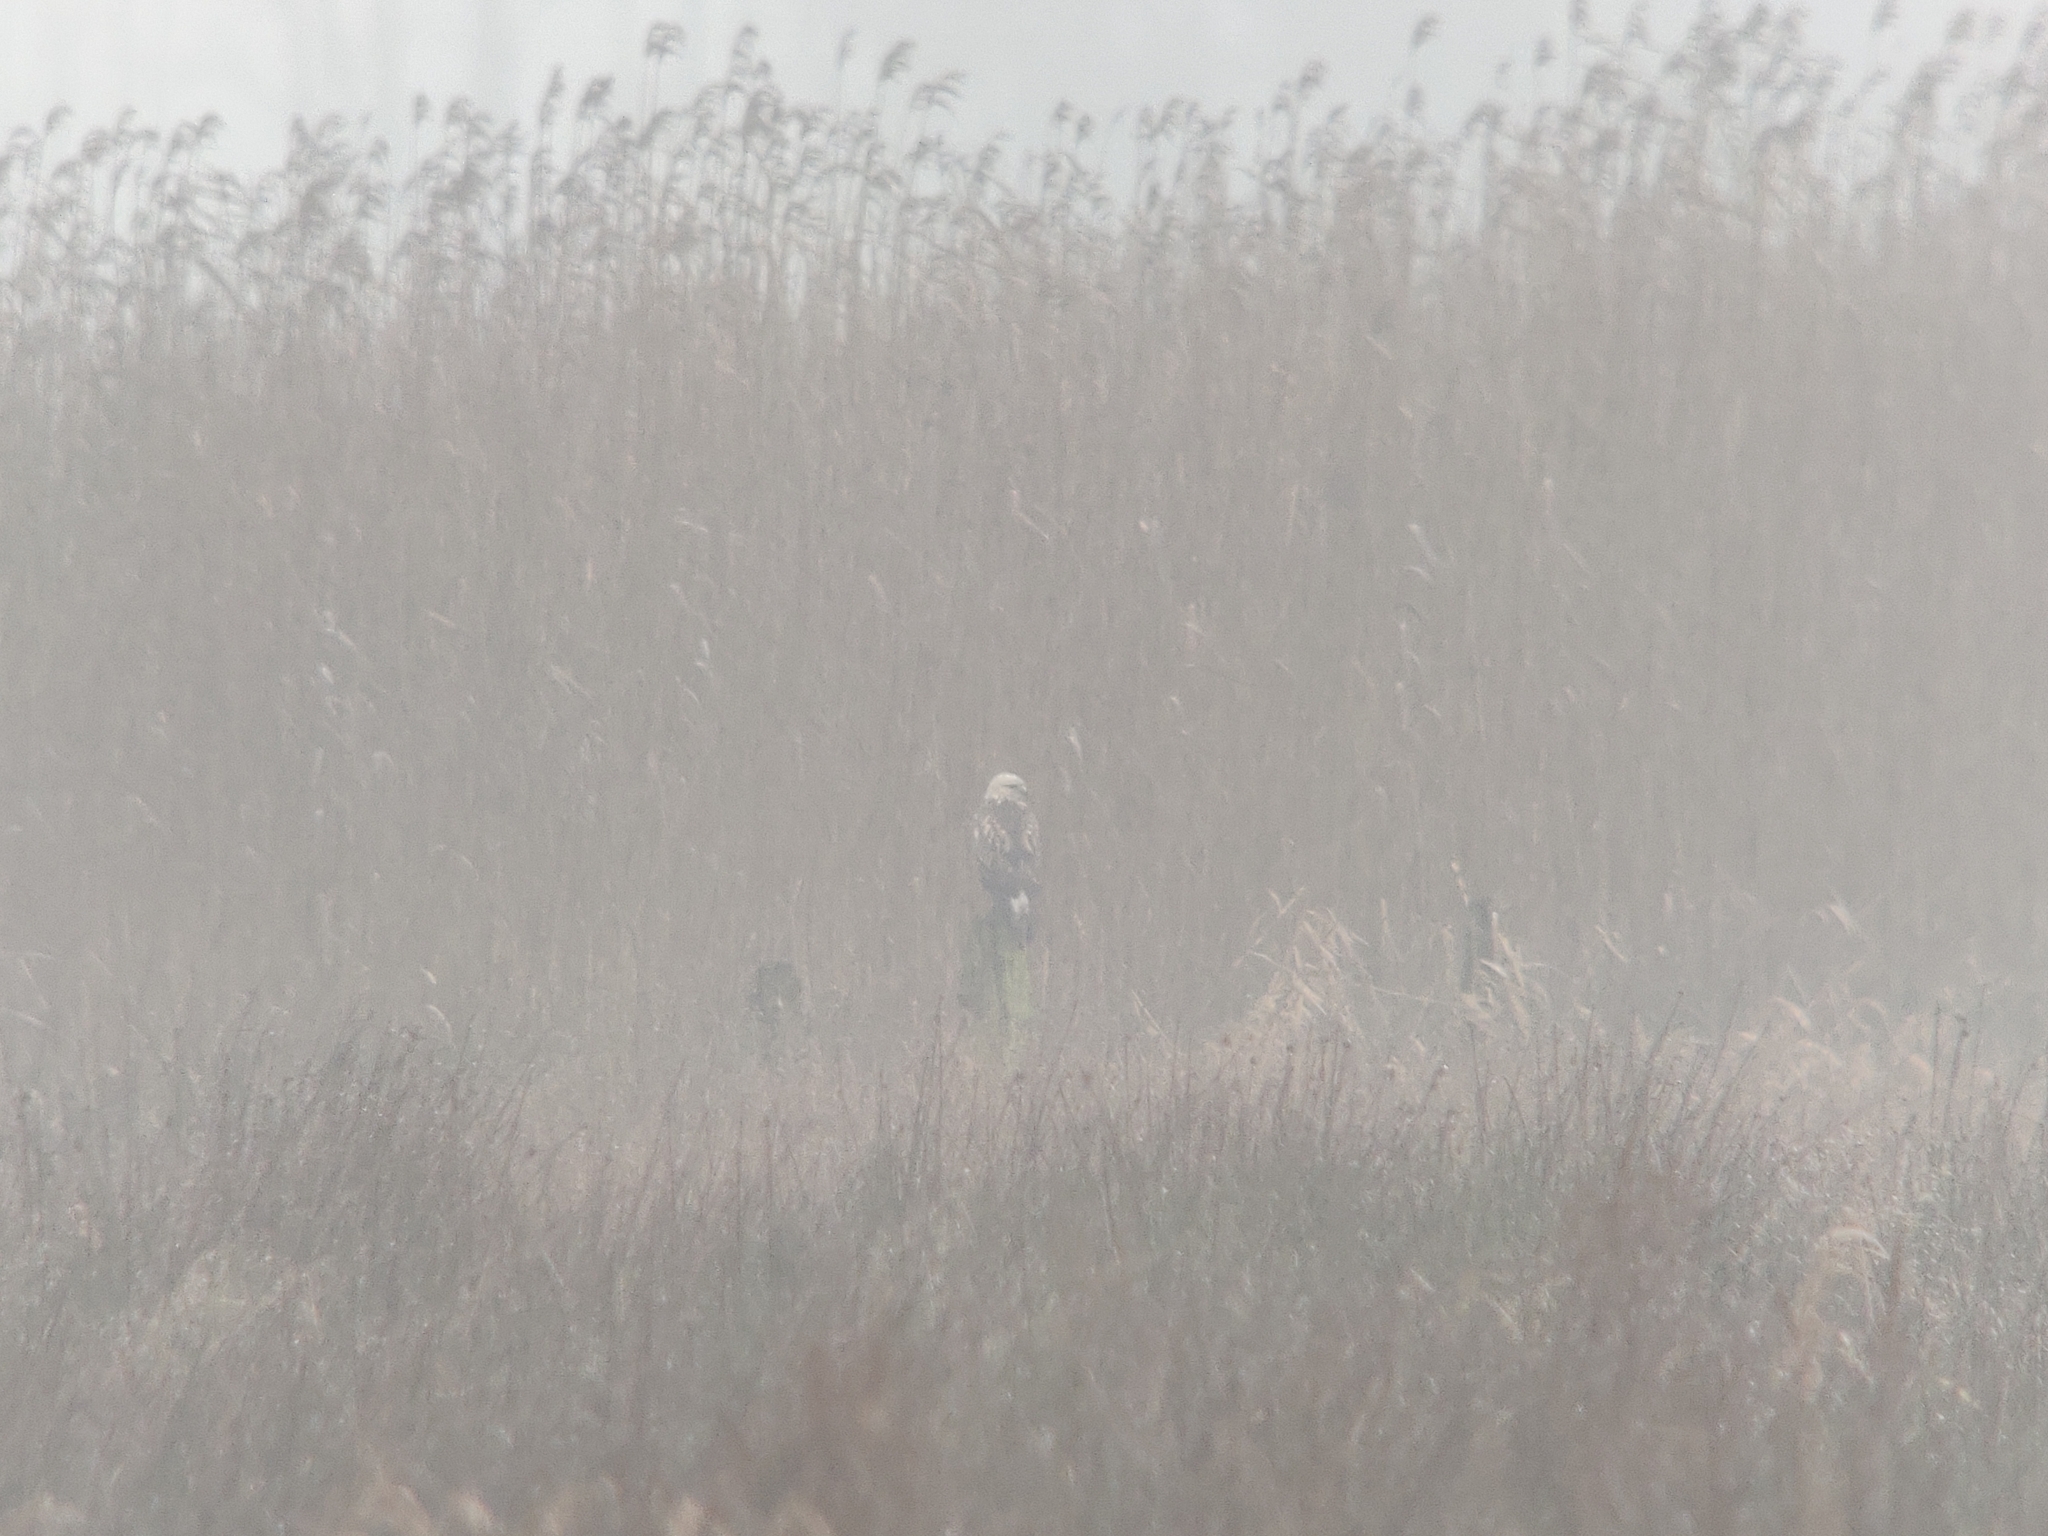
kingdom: Animalia
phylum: Chordata
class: Aves
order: Accipitriformes
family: Accipitridae
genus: Buteo
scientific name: Buteo lagopus
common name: Rough-legged buzzard
